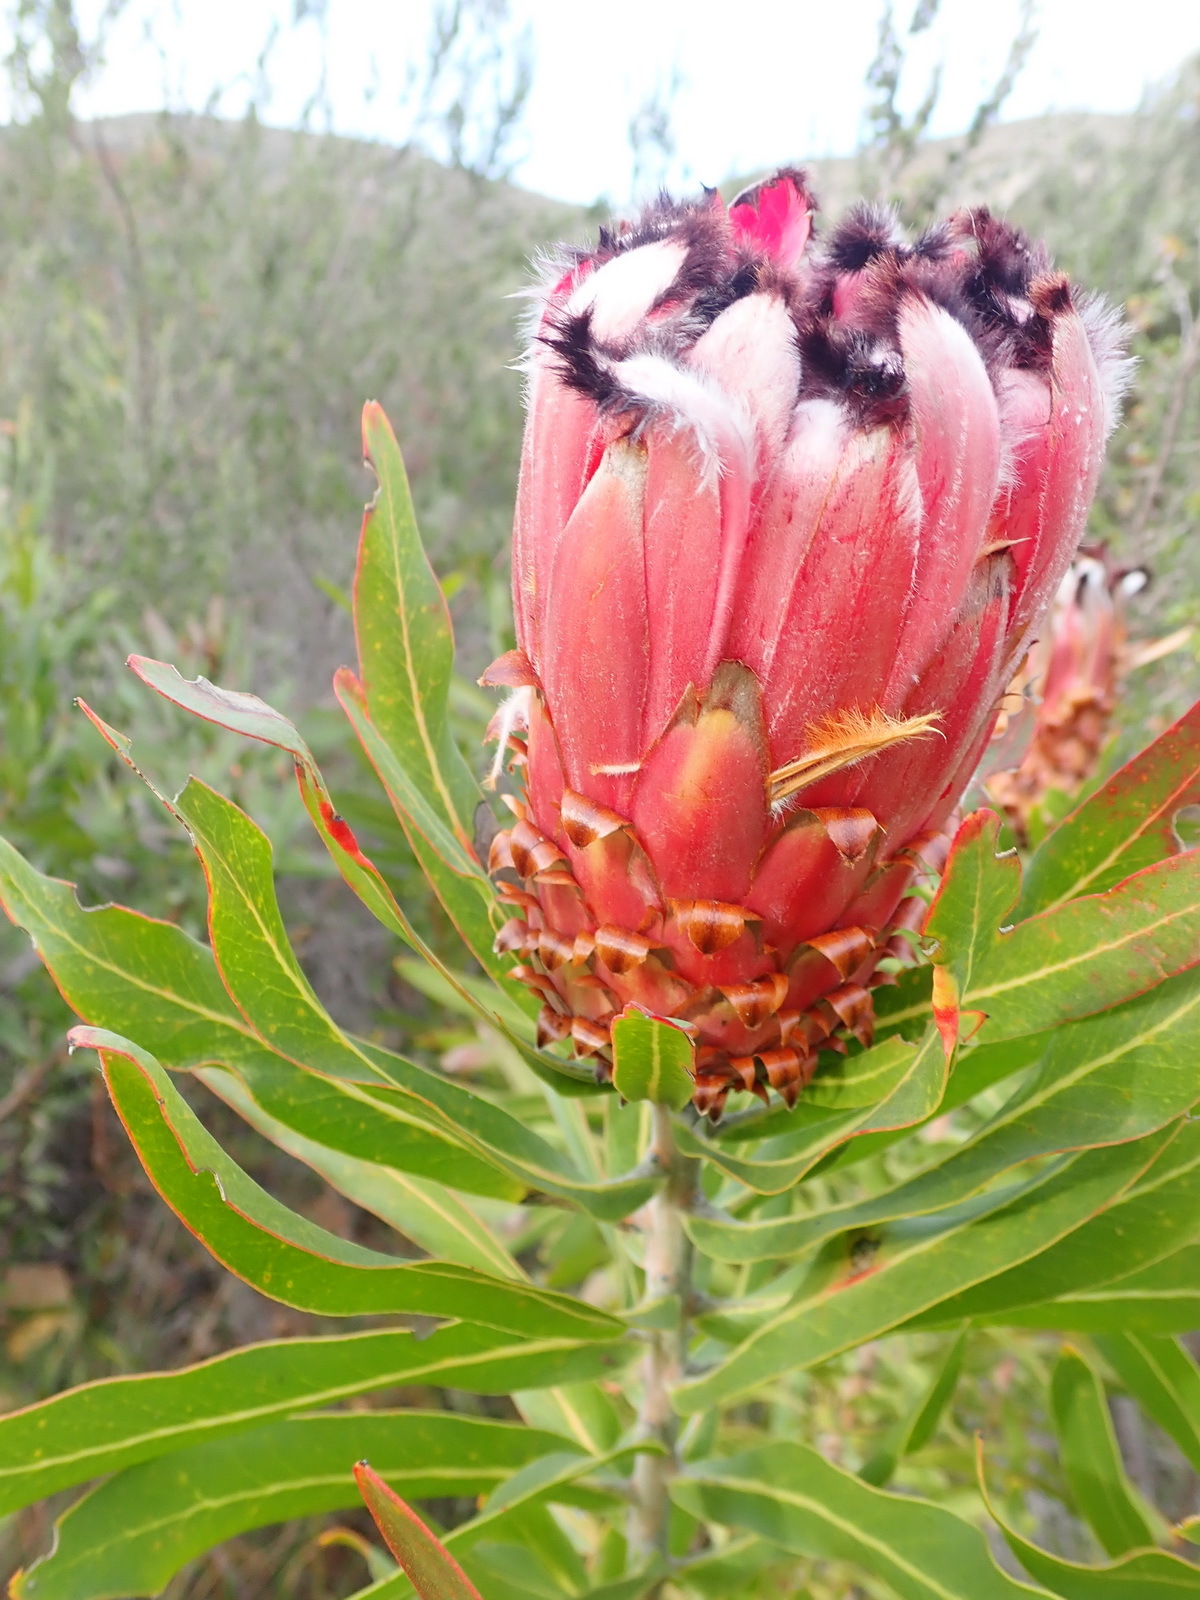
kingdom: Plantae
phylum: Tracheophyta
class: Magnoliopsida
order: Proteales
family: Proteaceae
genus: Protea
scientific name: Protea neriifolia
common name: Blue sugarbush
